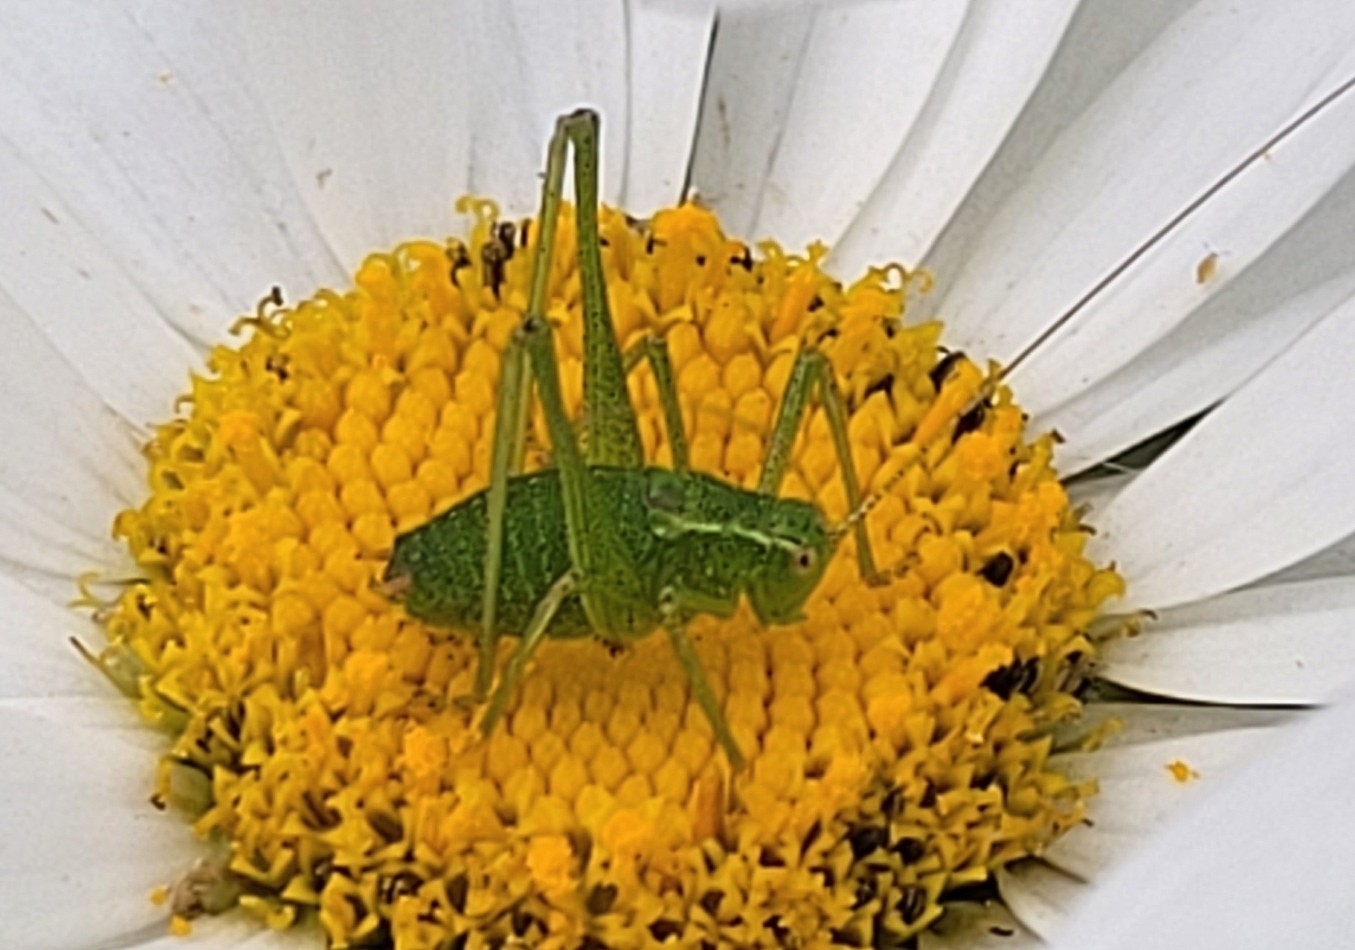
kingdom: Animalia
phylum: Arthropoda
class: Insecta
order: Orthoptera
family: Tettigoniidae
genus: Leptophyes
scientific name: Leptophyes punctatissima
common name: Speckled bush-cricket
